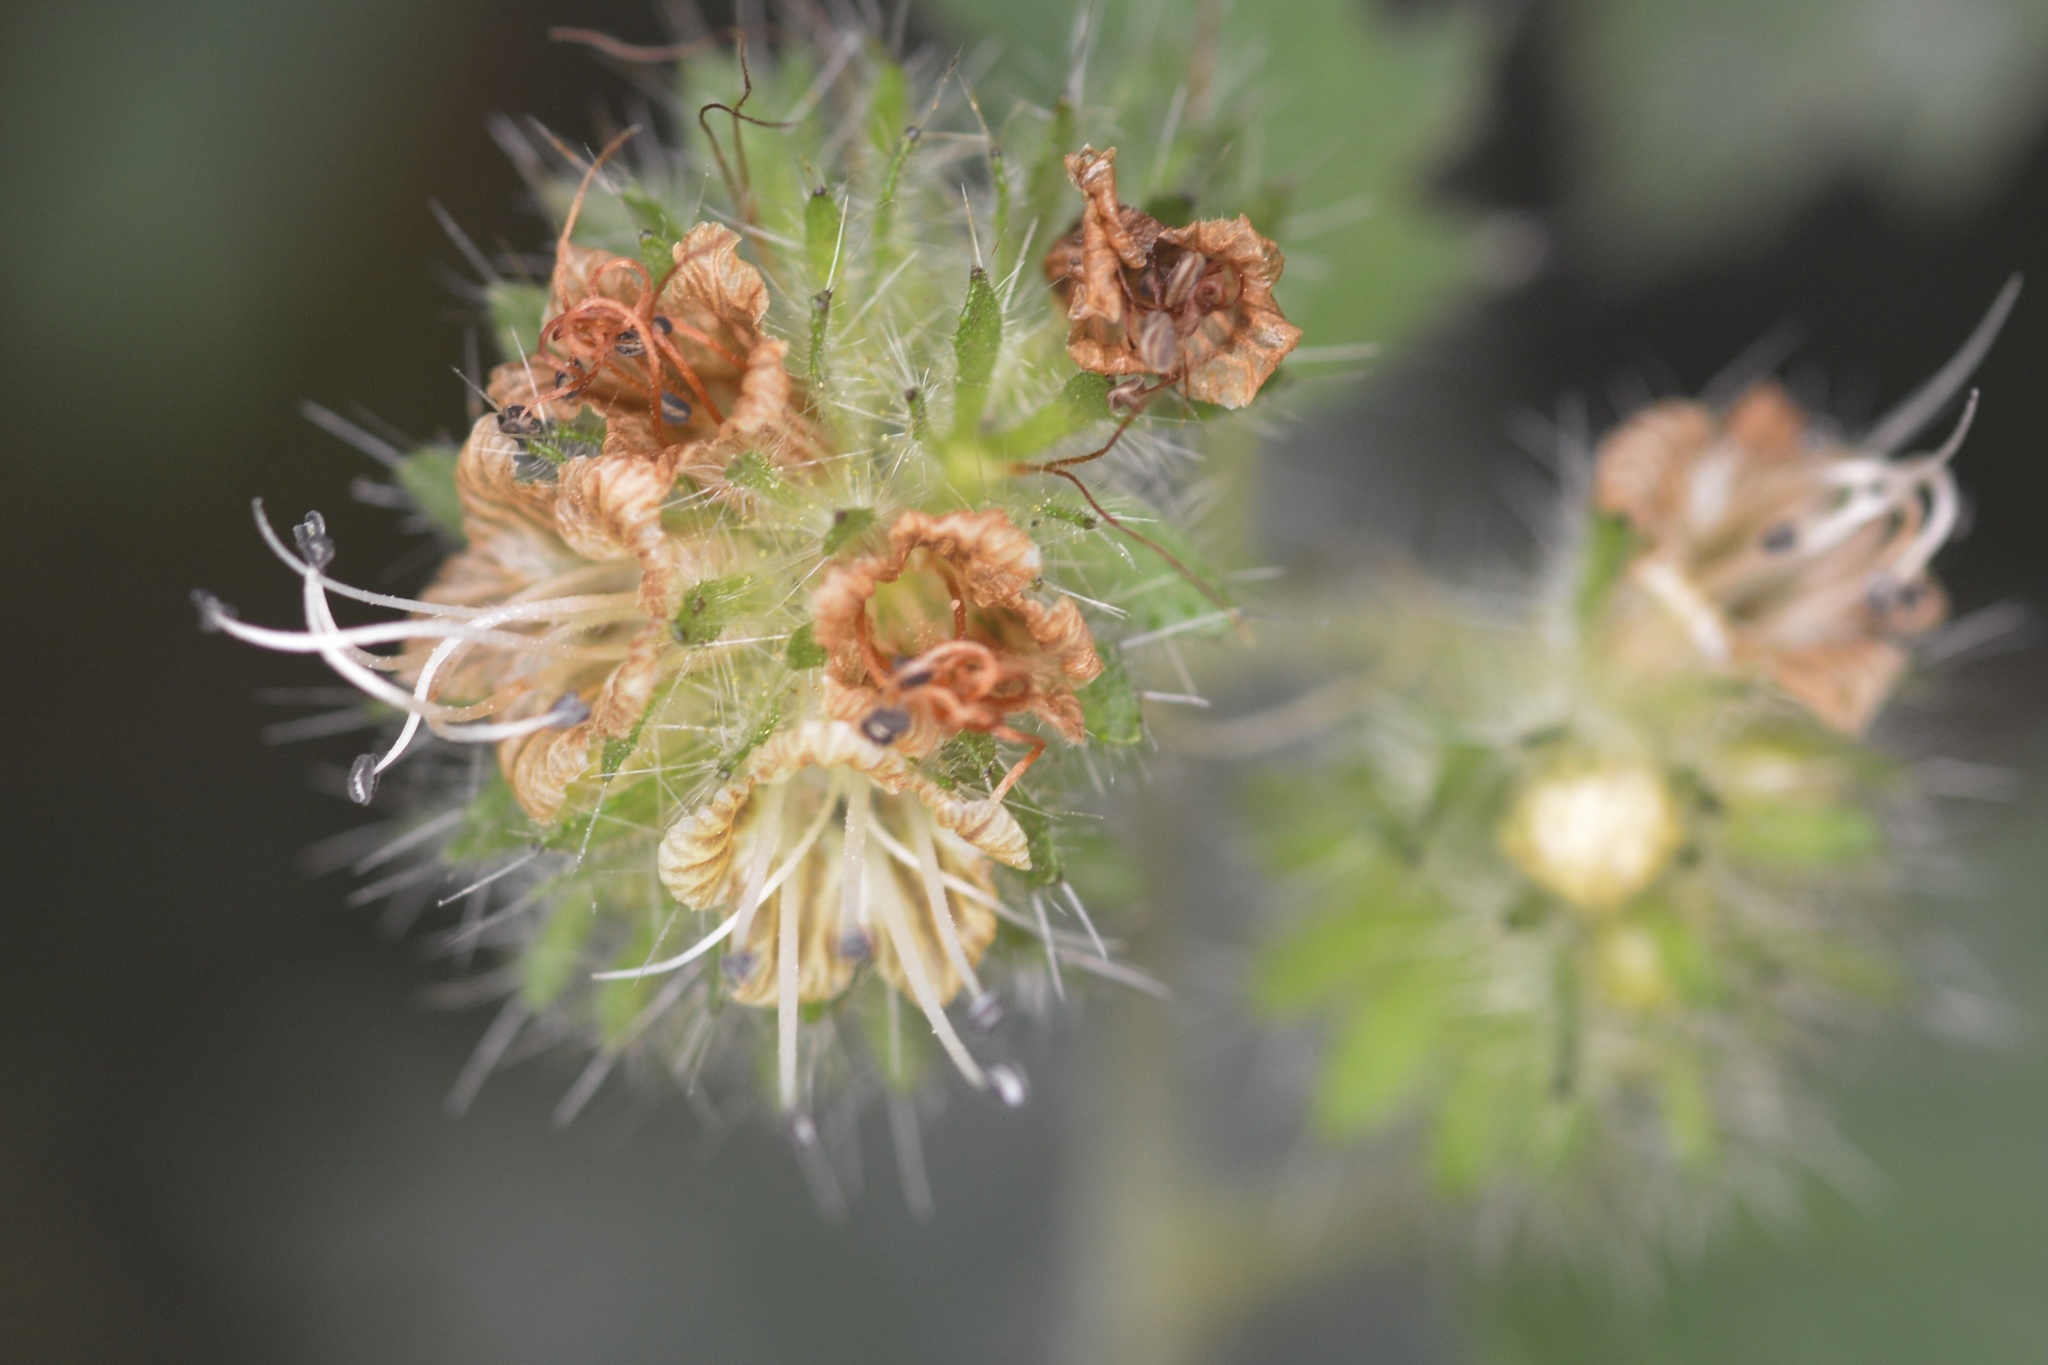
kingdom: Plantae
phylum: Tracheophyta
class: Magnoliopsida
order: Boraginales
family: Hydrophyllaceae
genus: Phacelia
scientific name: Phacelia malvifolia
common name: Mallow-leaf phacelia
